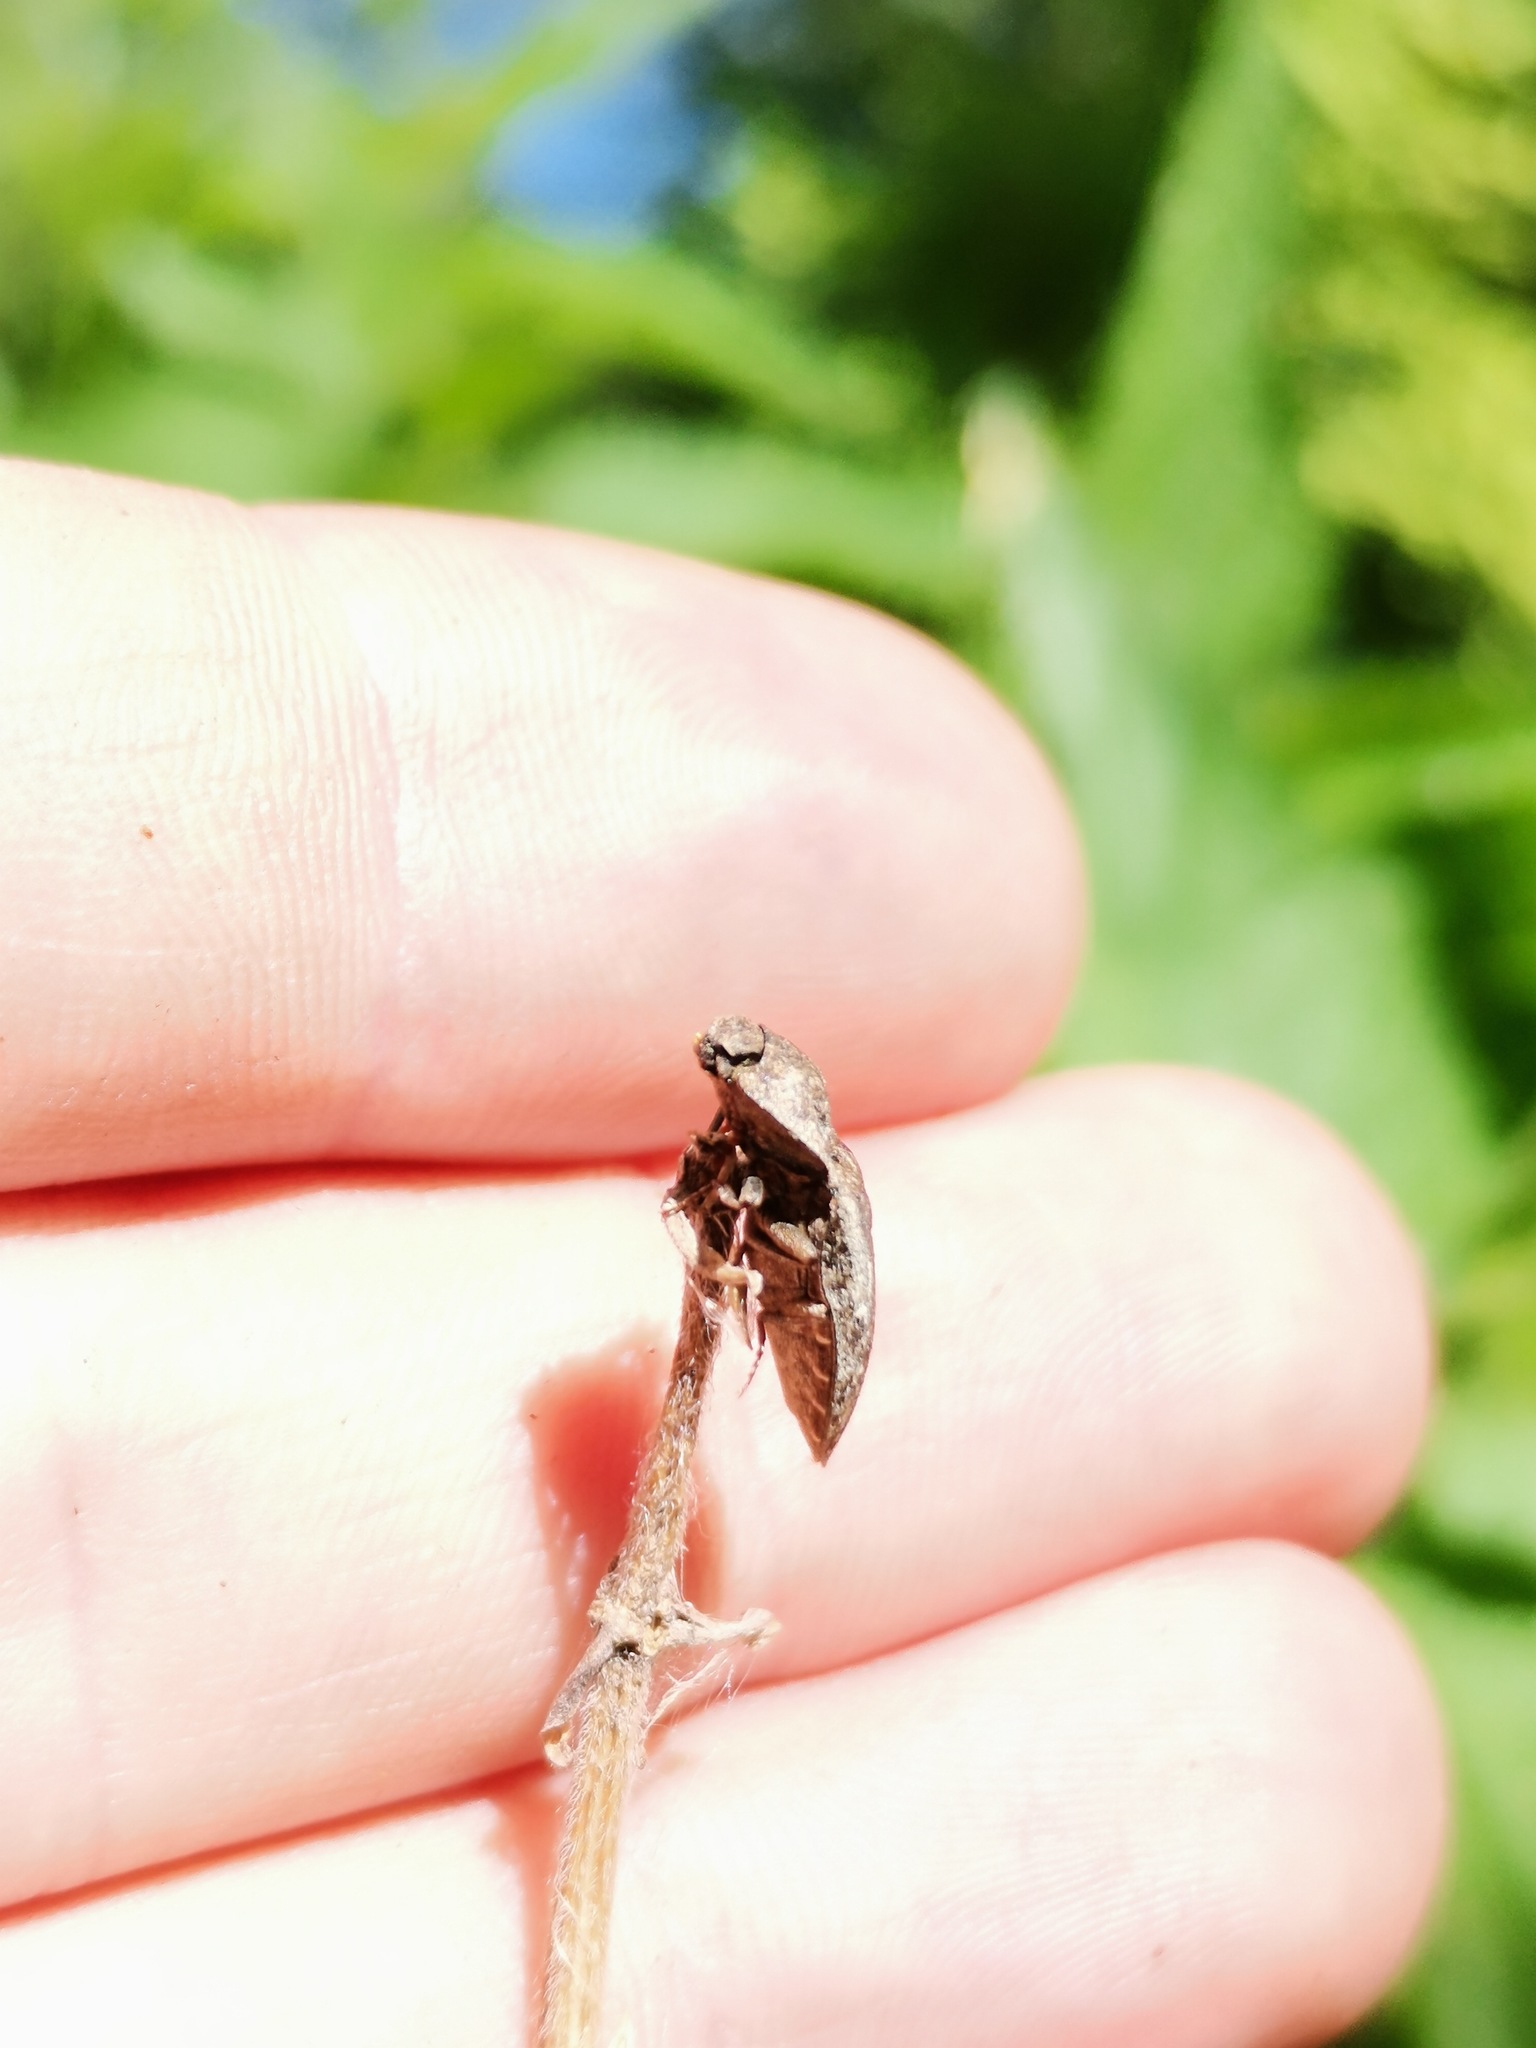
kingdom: Animalia
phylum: Arthropoda
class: Insecta
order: Coleoptera
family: Elateridae
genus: Agrypnus
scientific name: Agrypnus murinus
